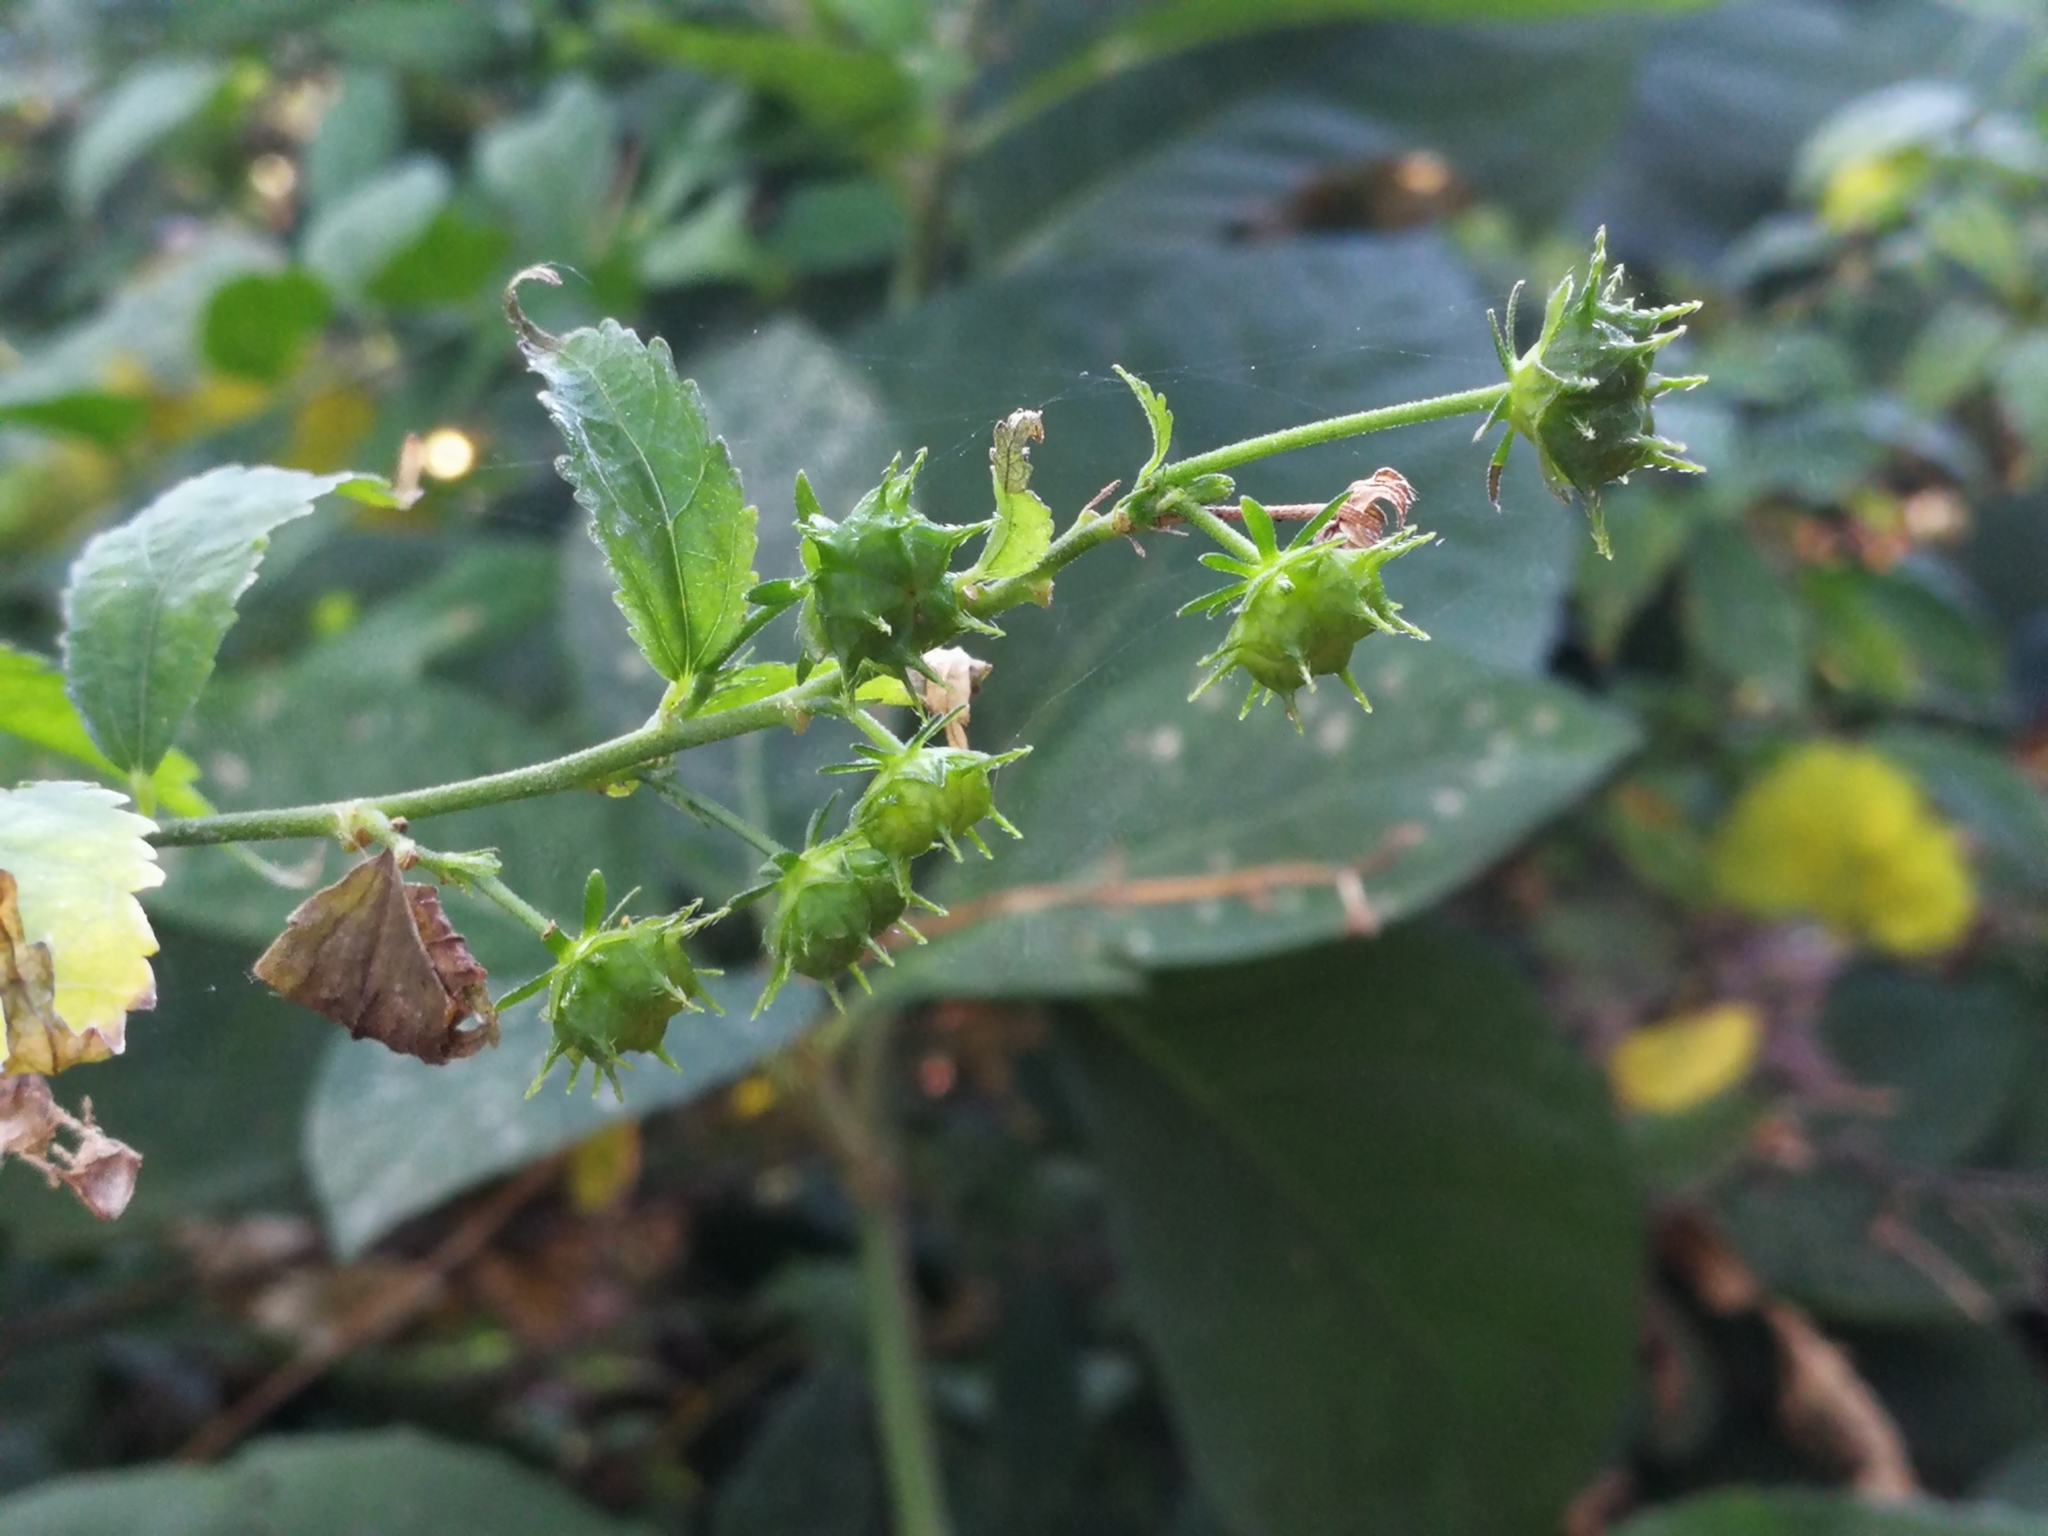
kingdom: Plantae
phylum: Tracheophyta
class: Magnoliopsida
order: Malvales
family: Malvaceae
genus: Pavonia
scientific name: Pavonia sepium
